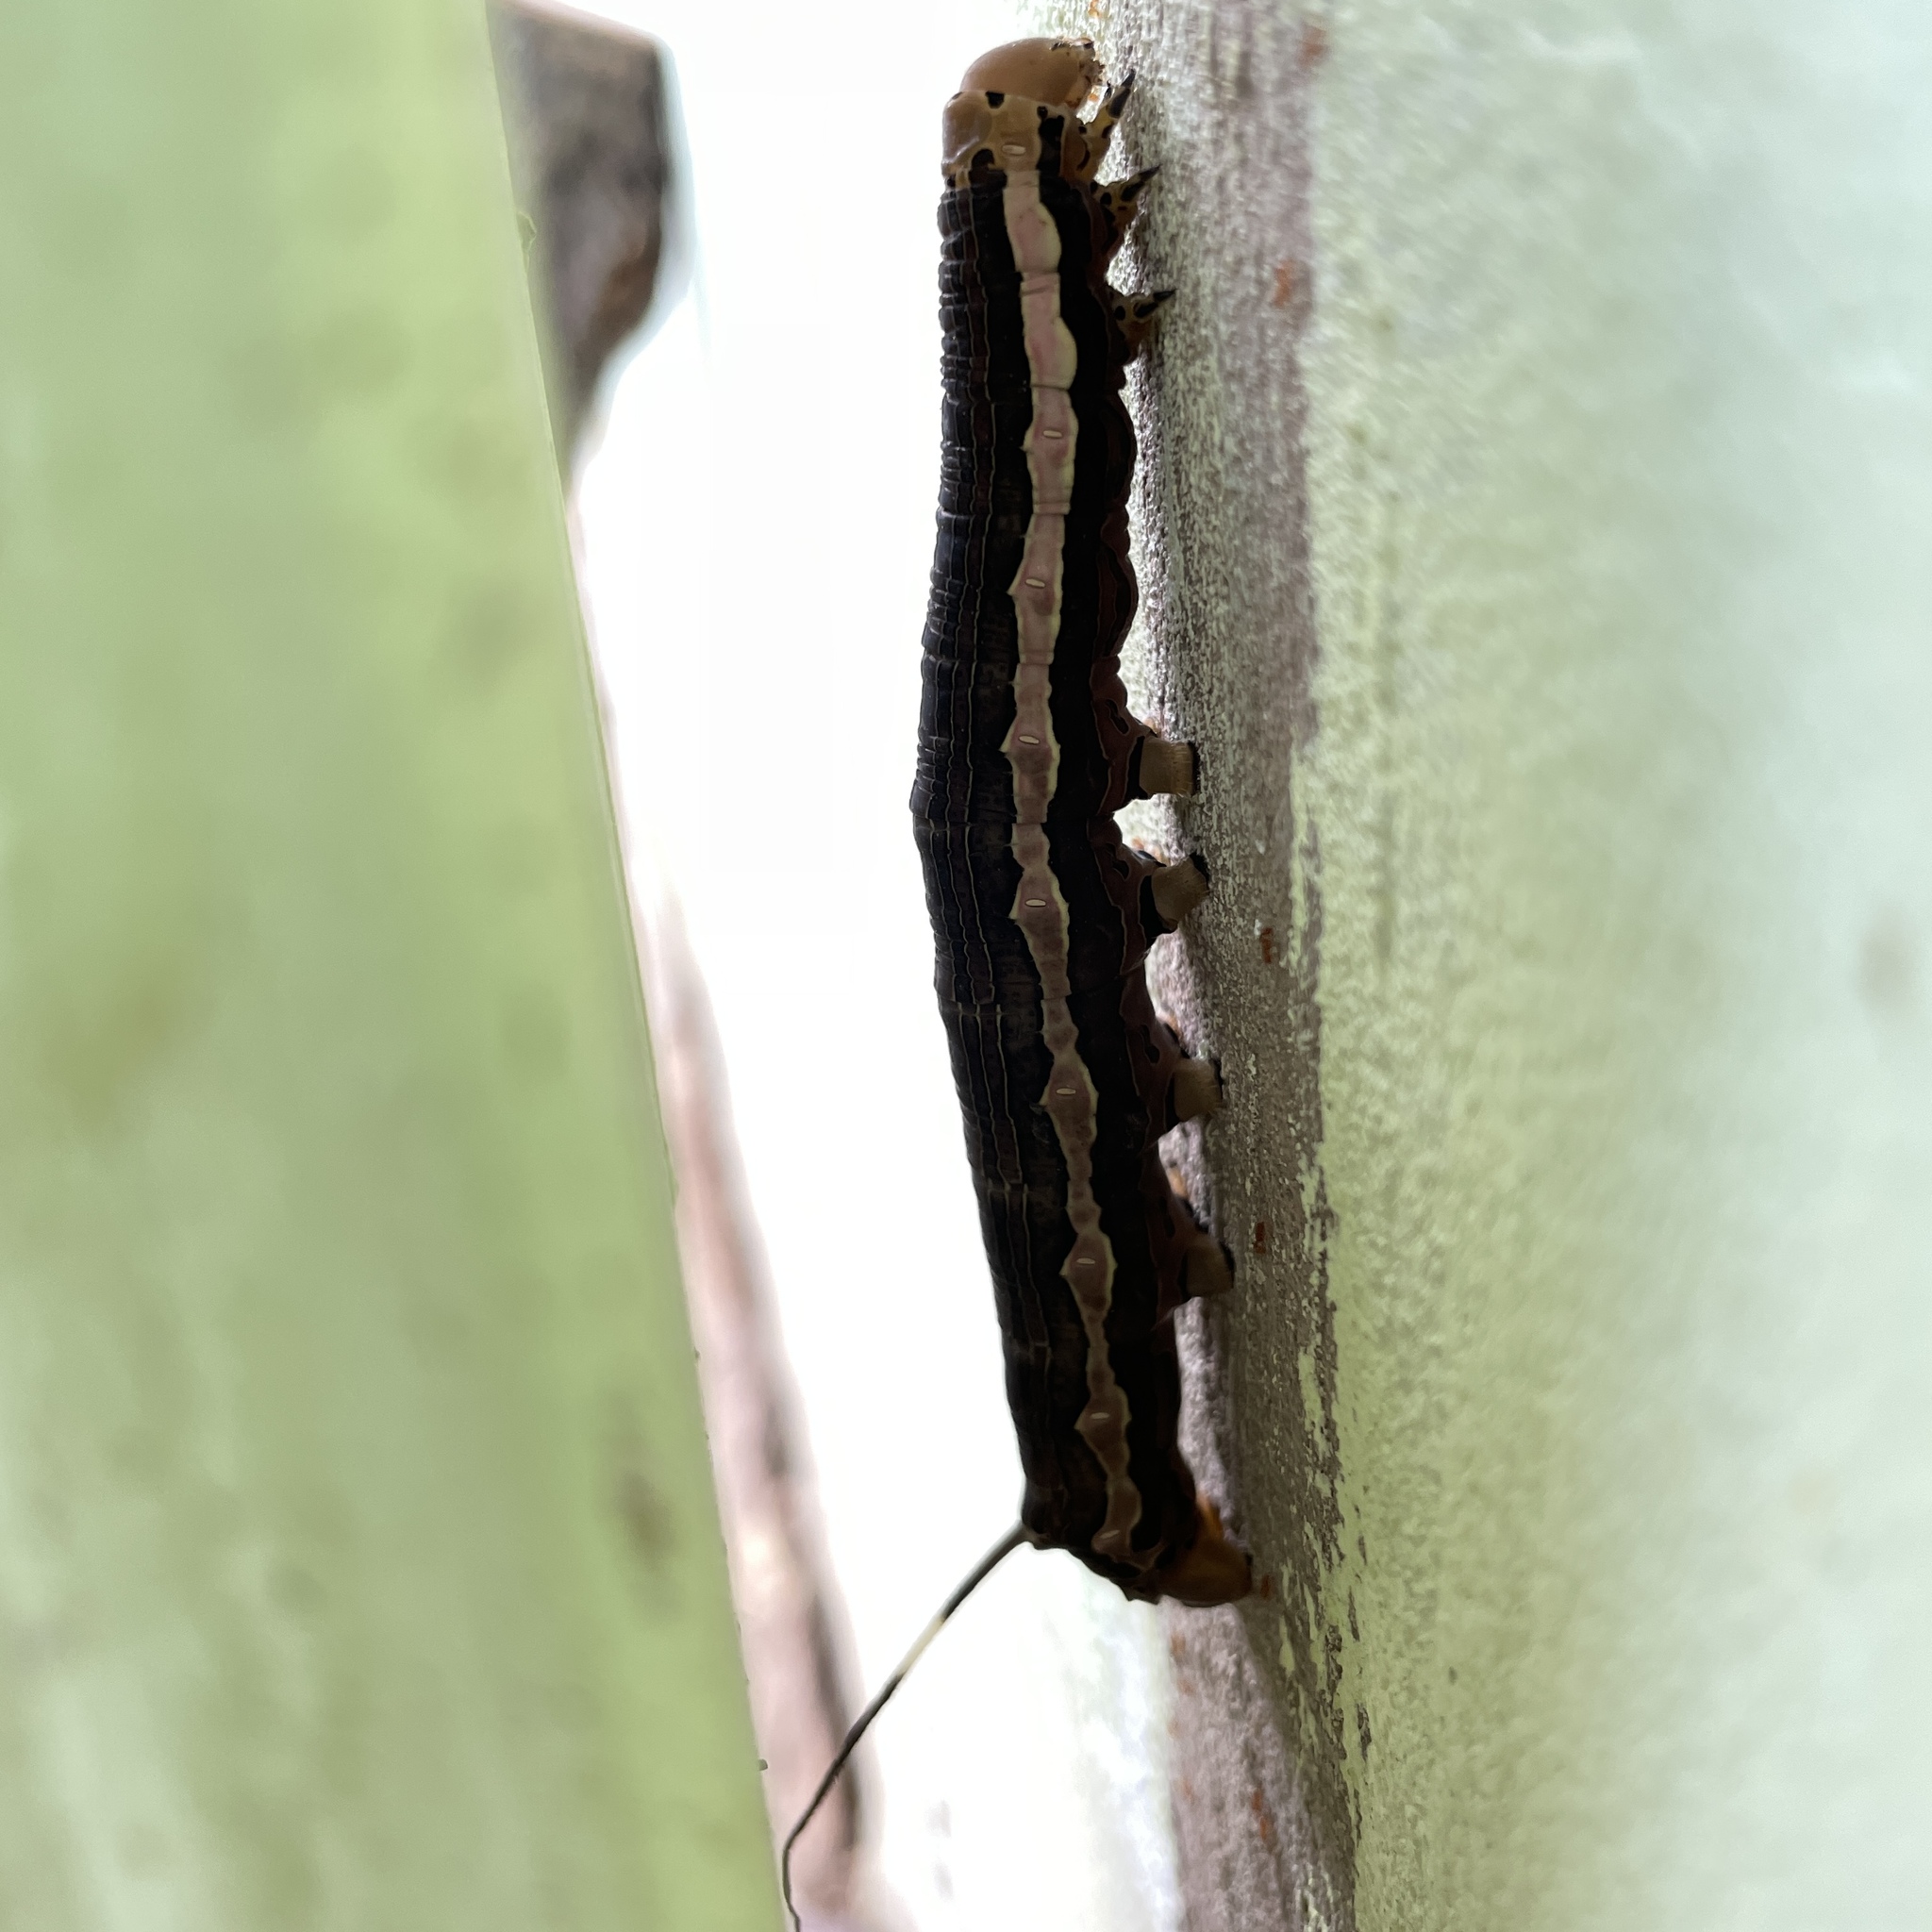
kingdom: Animalia
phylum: Arthropoda
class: Insecta
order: Lepidoptera
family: Sphingidae
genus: Isognathus
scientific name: Isognathus scyron
